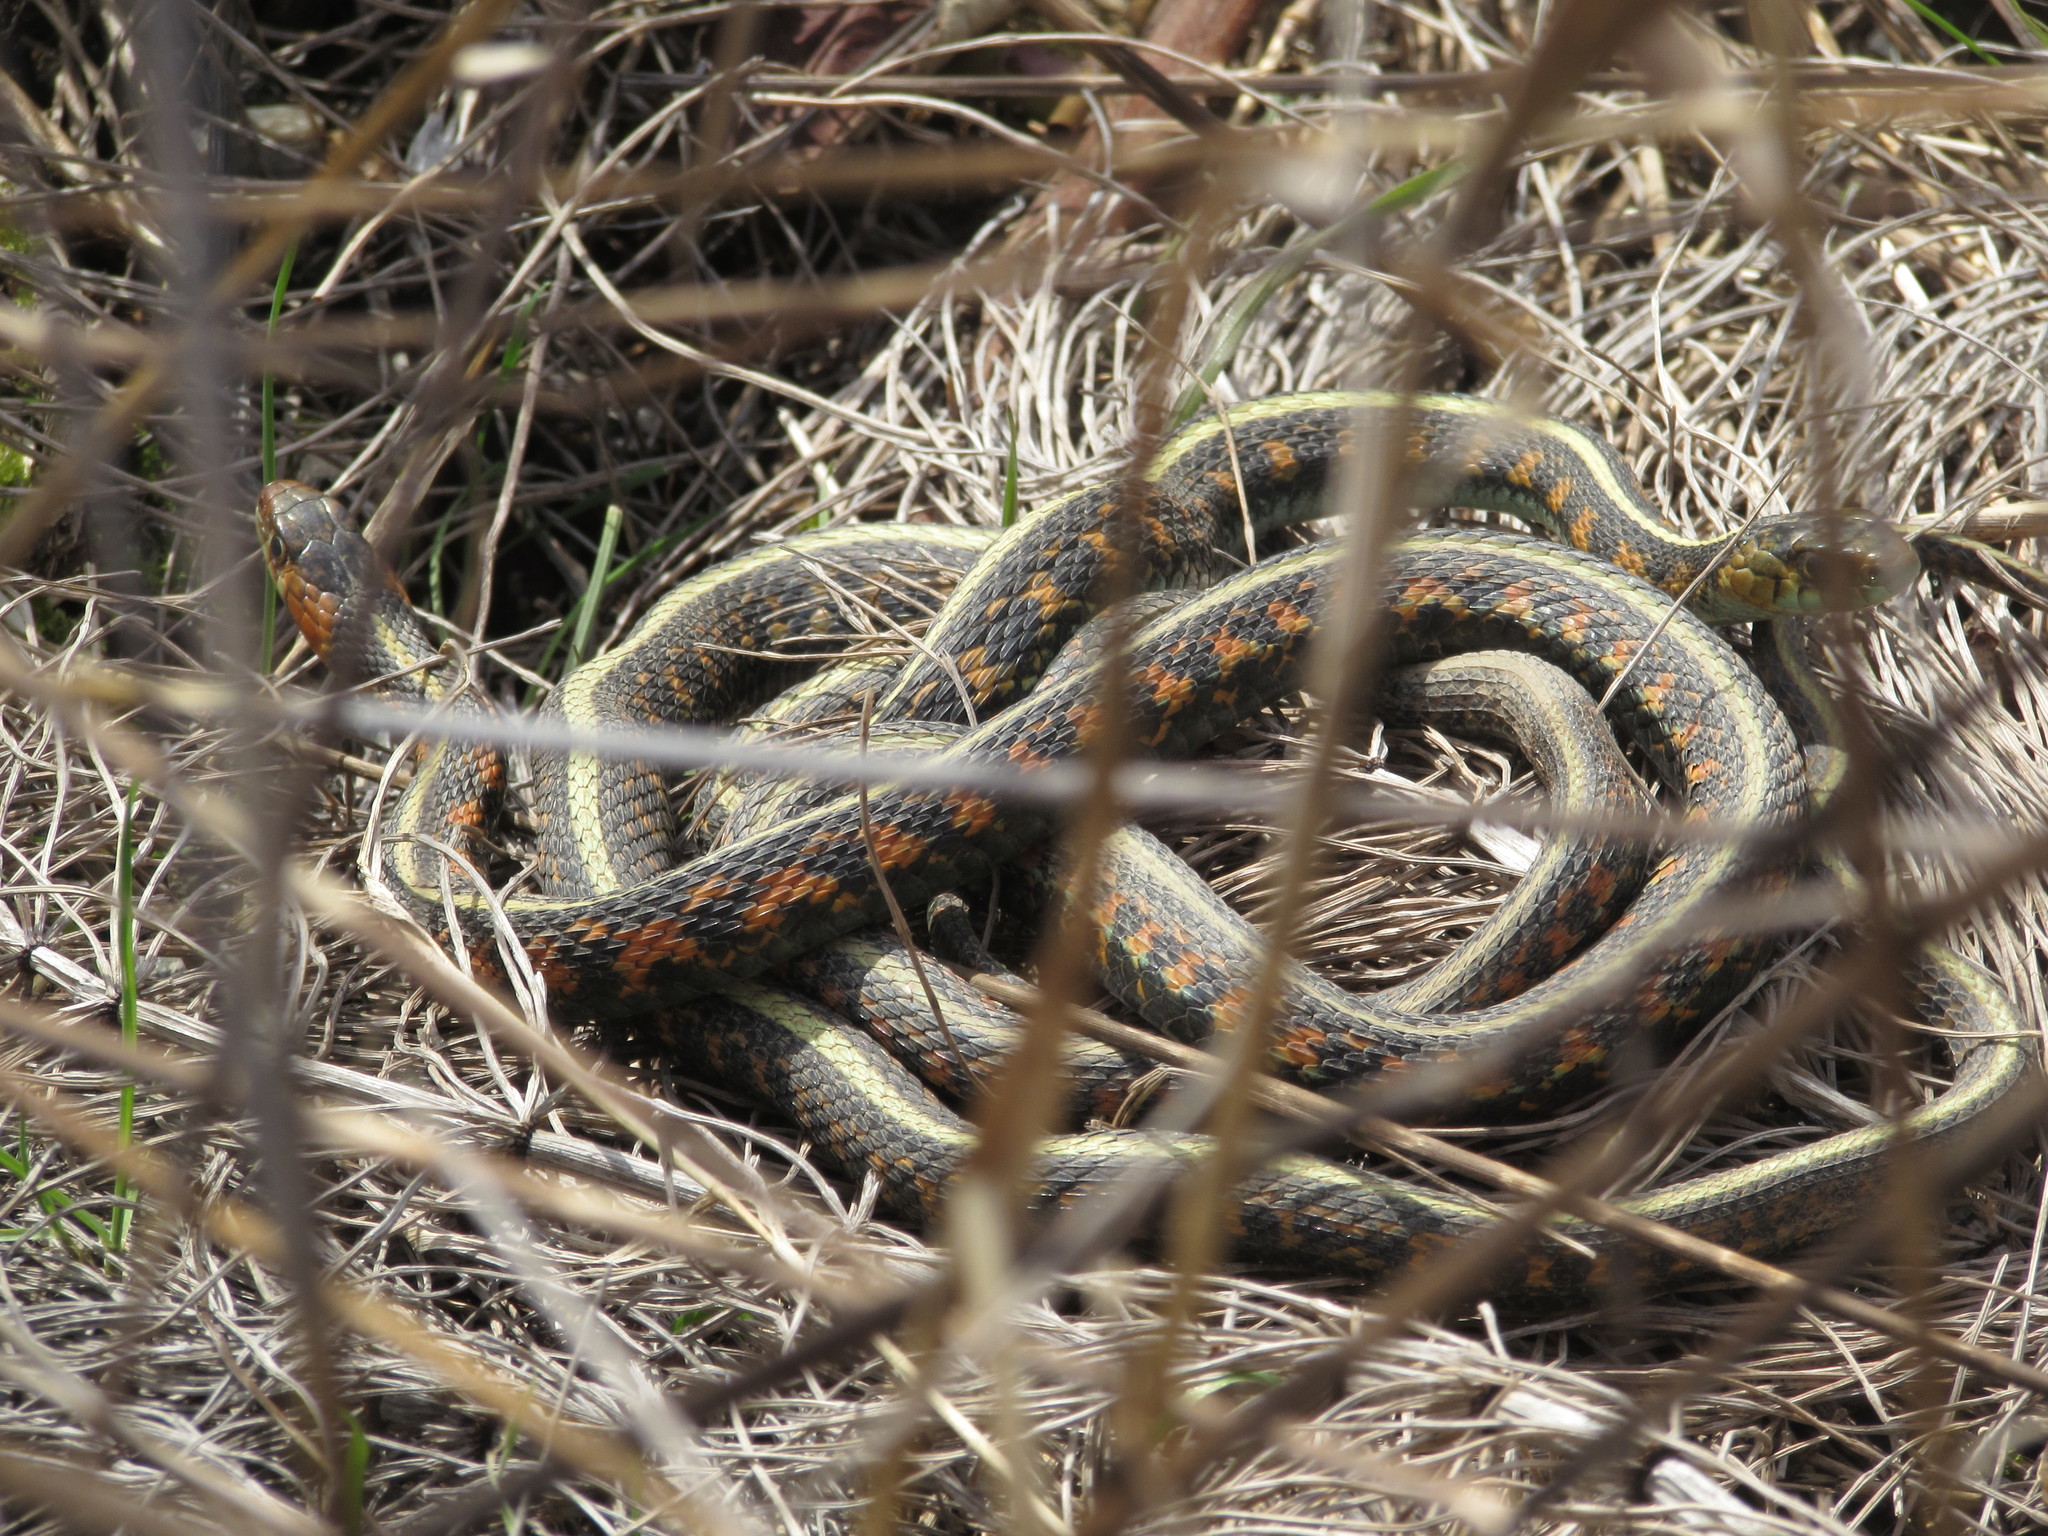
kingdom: Animalia
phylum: Chordata
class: Squamata
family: Colubridae
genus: Thamnophis
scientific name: Thamnophis sirtalis
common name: Common garter snake
